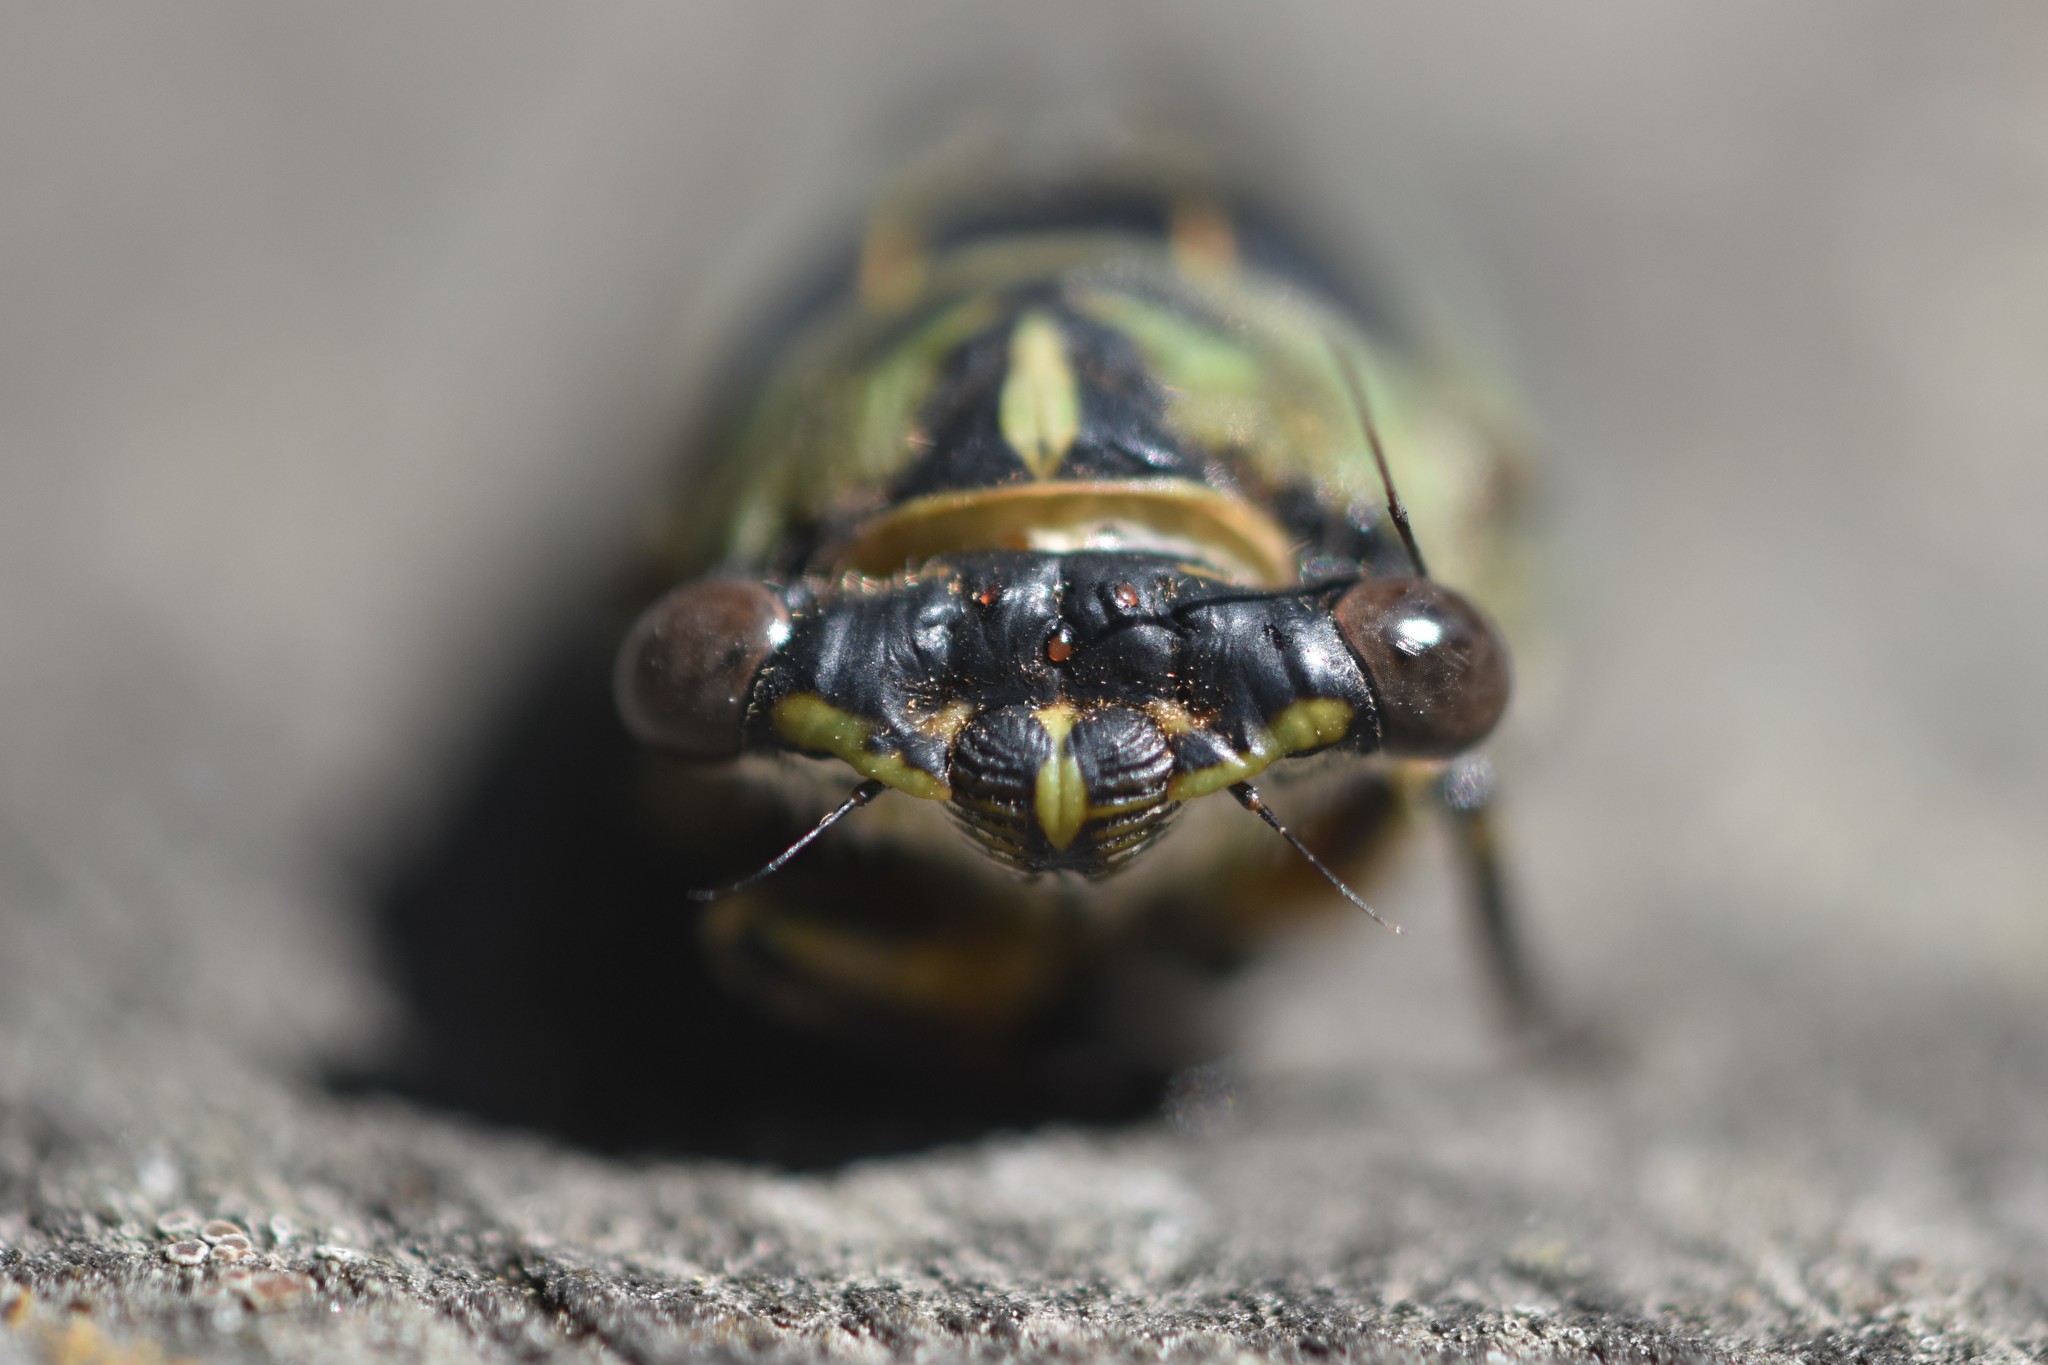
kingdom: Animalia
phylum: Arthropoda
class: Insecta
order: Hemiptera
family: Cicadidae
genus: Neotibicen
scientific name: Neotibicen canicularis
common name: God-day cicada
